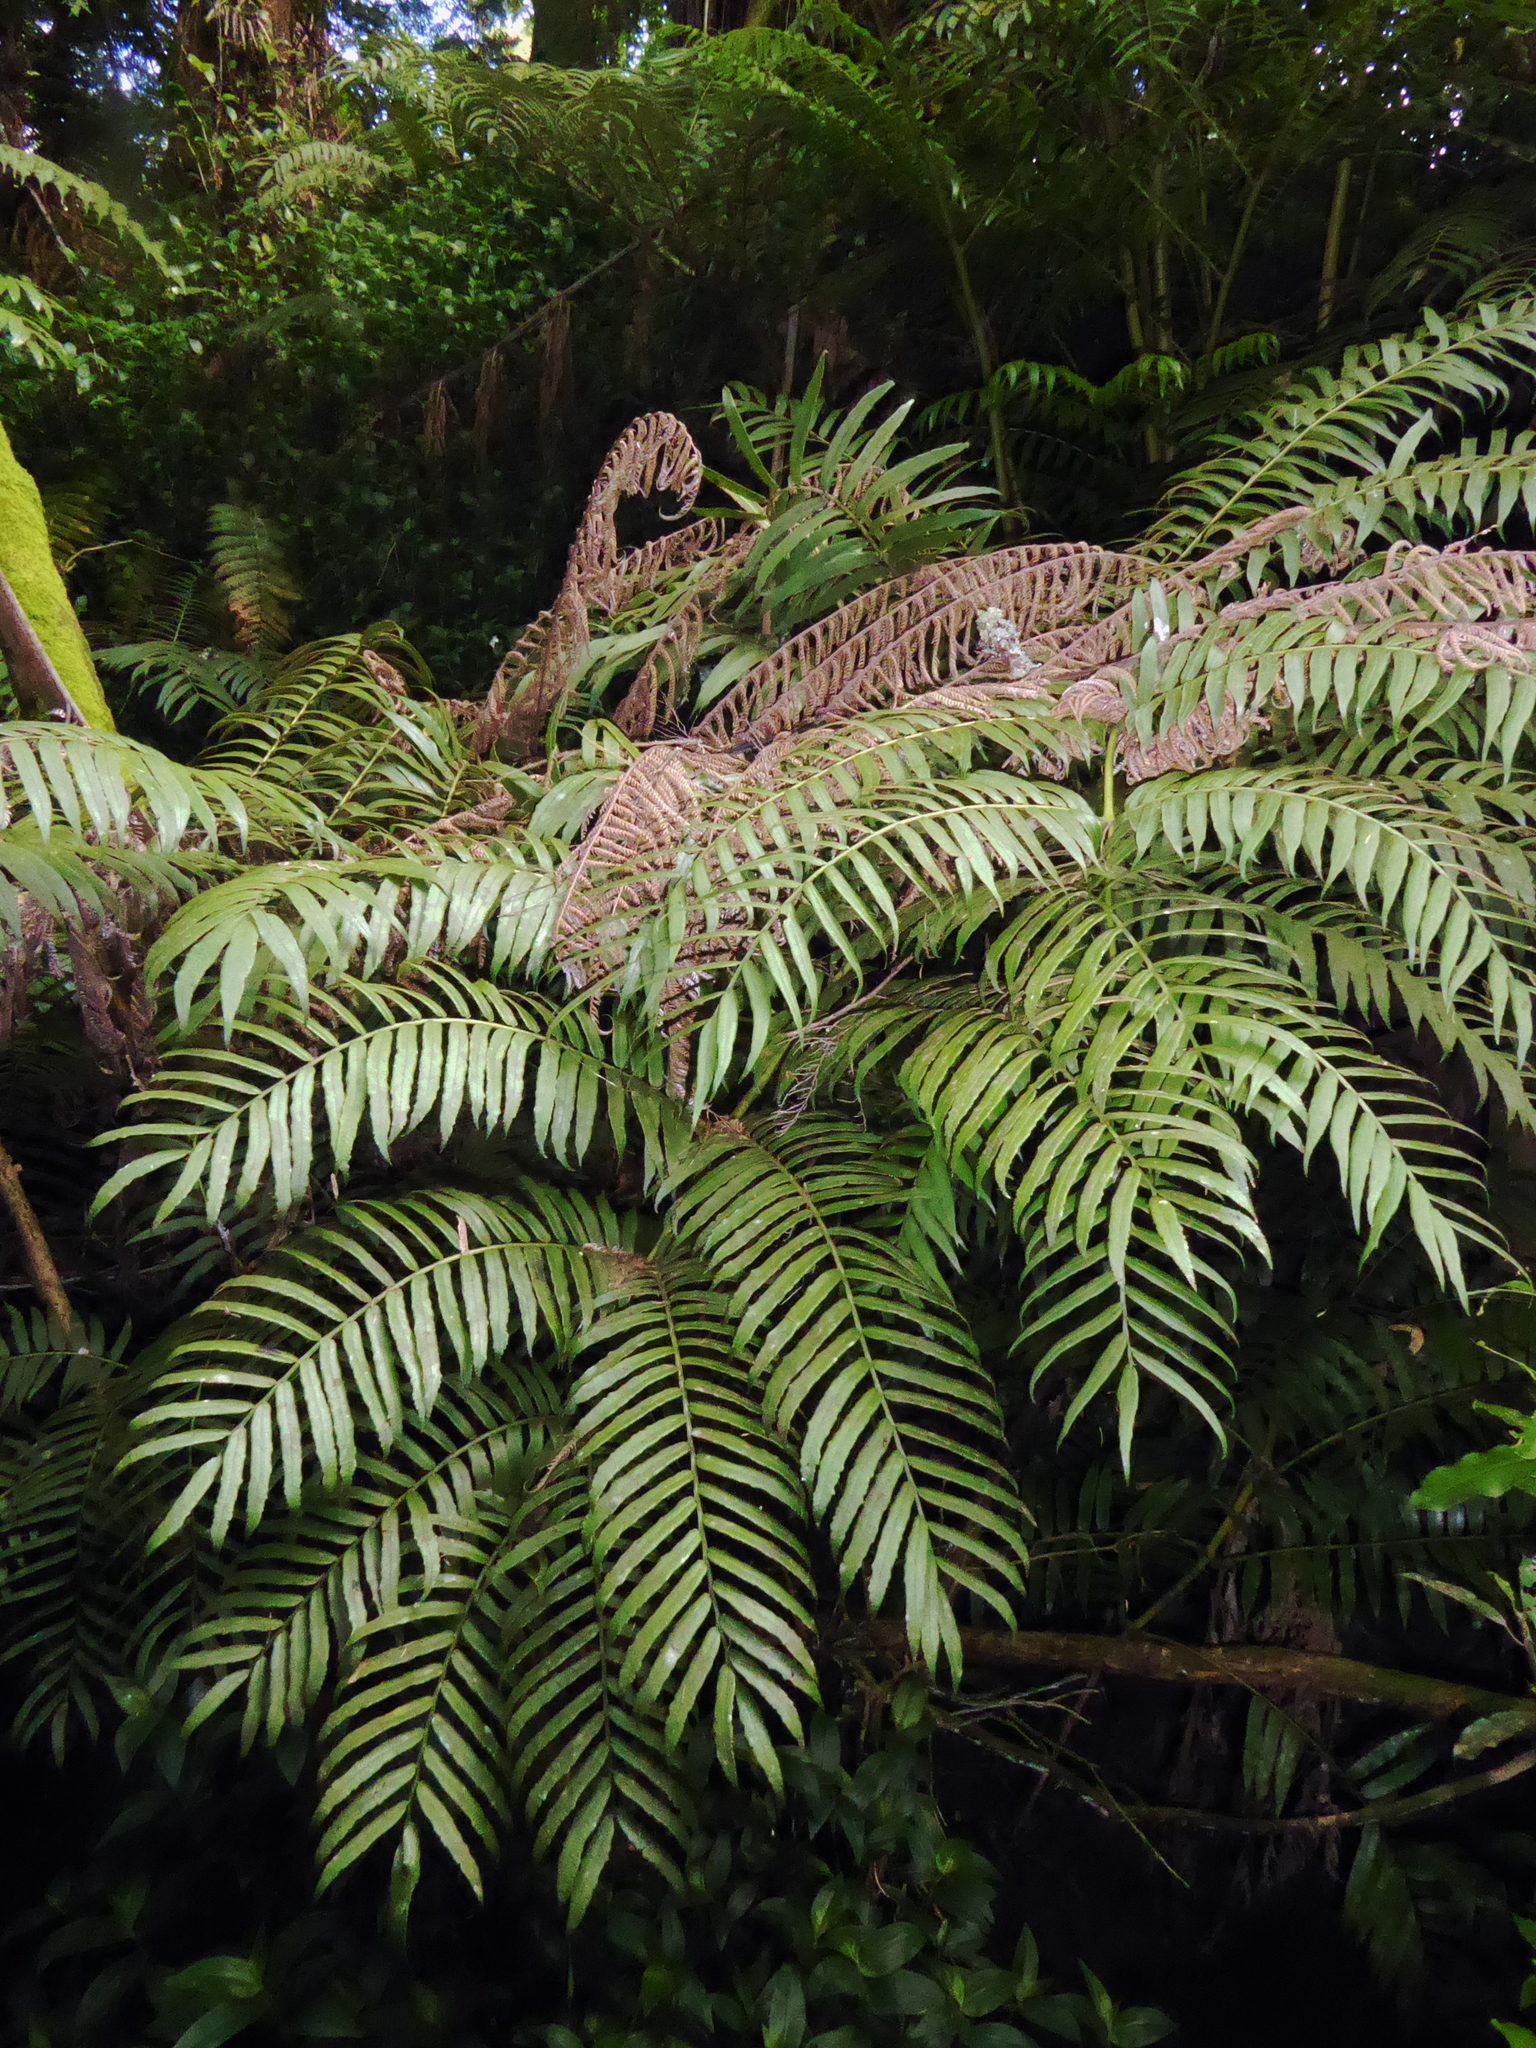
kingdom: Plantae
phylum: Tracheophyta
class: Polypodiopsida
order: Marattiales
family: Marattiaceae
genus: Ptisana
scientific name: Ptisana salicina
